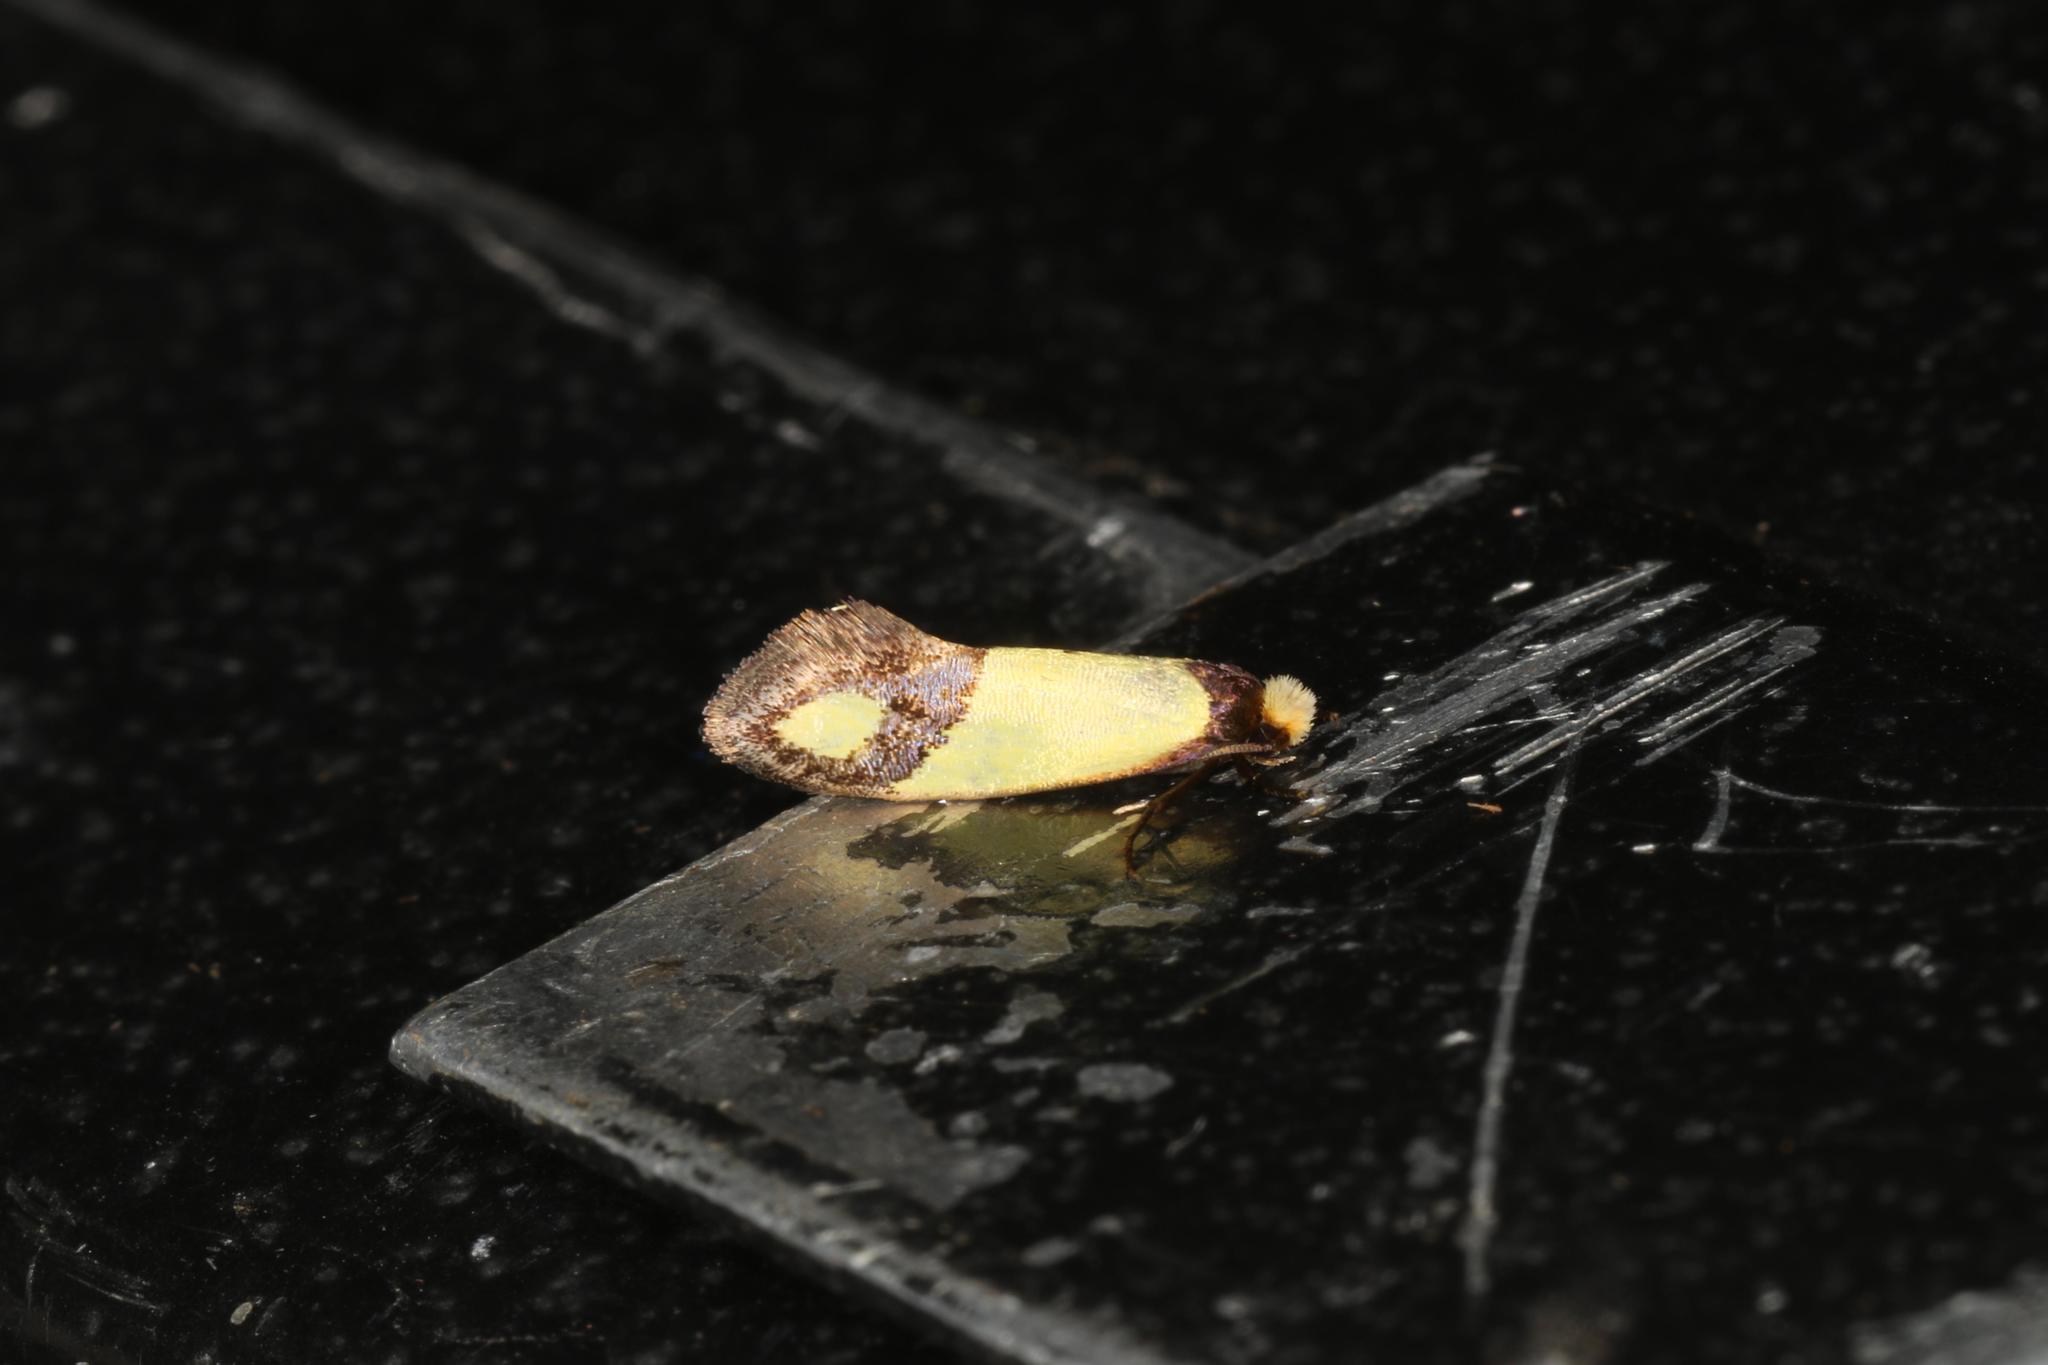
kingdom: Animalia
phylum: Arthropoda
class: Insecta
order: Lepidoptera
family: Tineidae
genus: Edosa
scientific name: Edosa fraudulens
